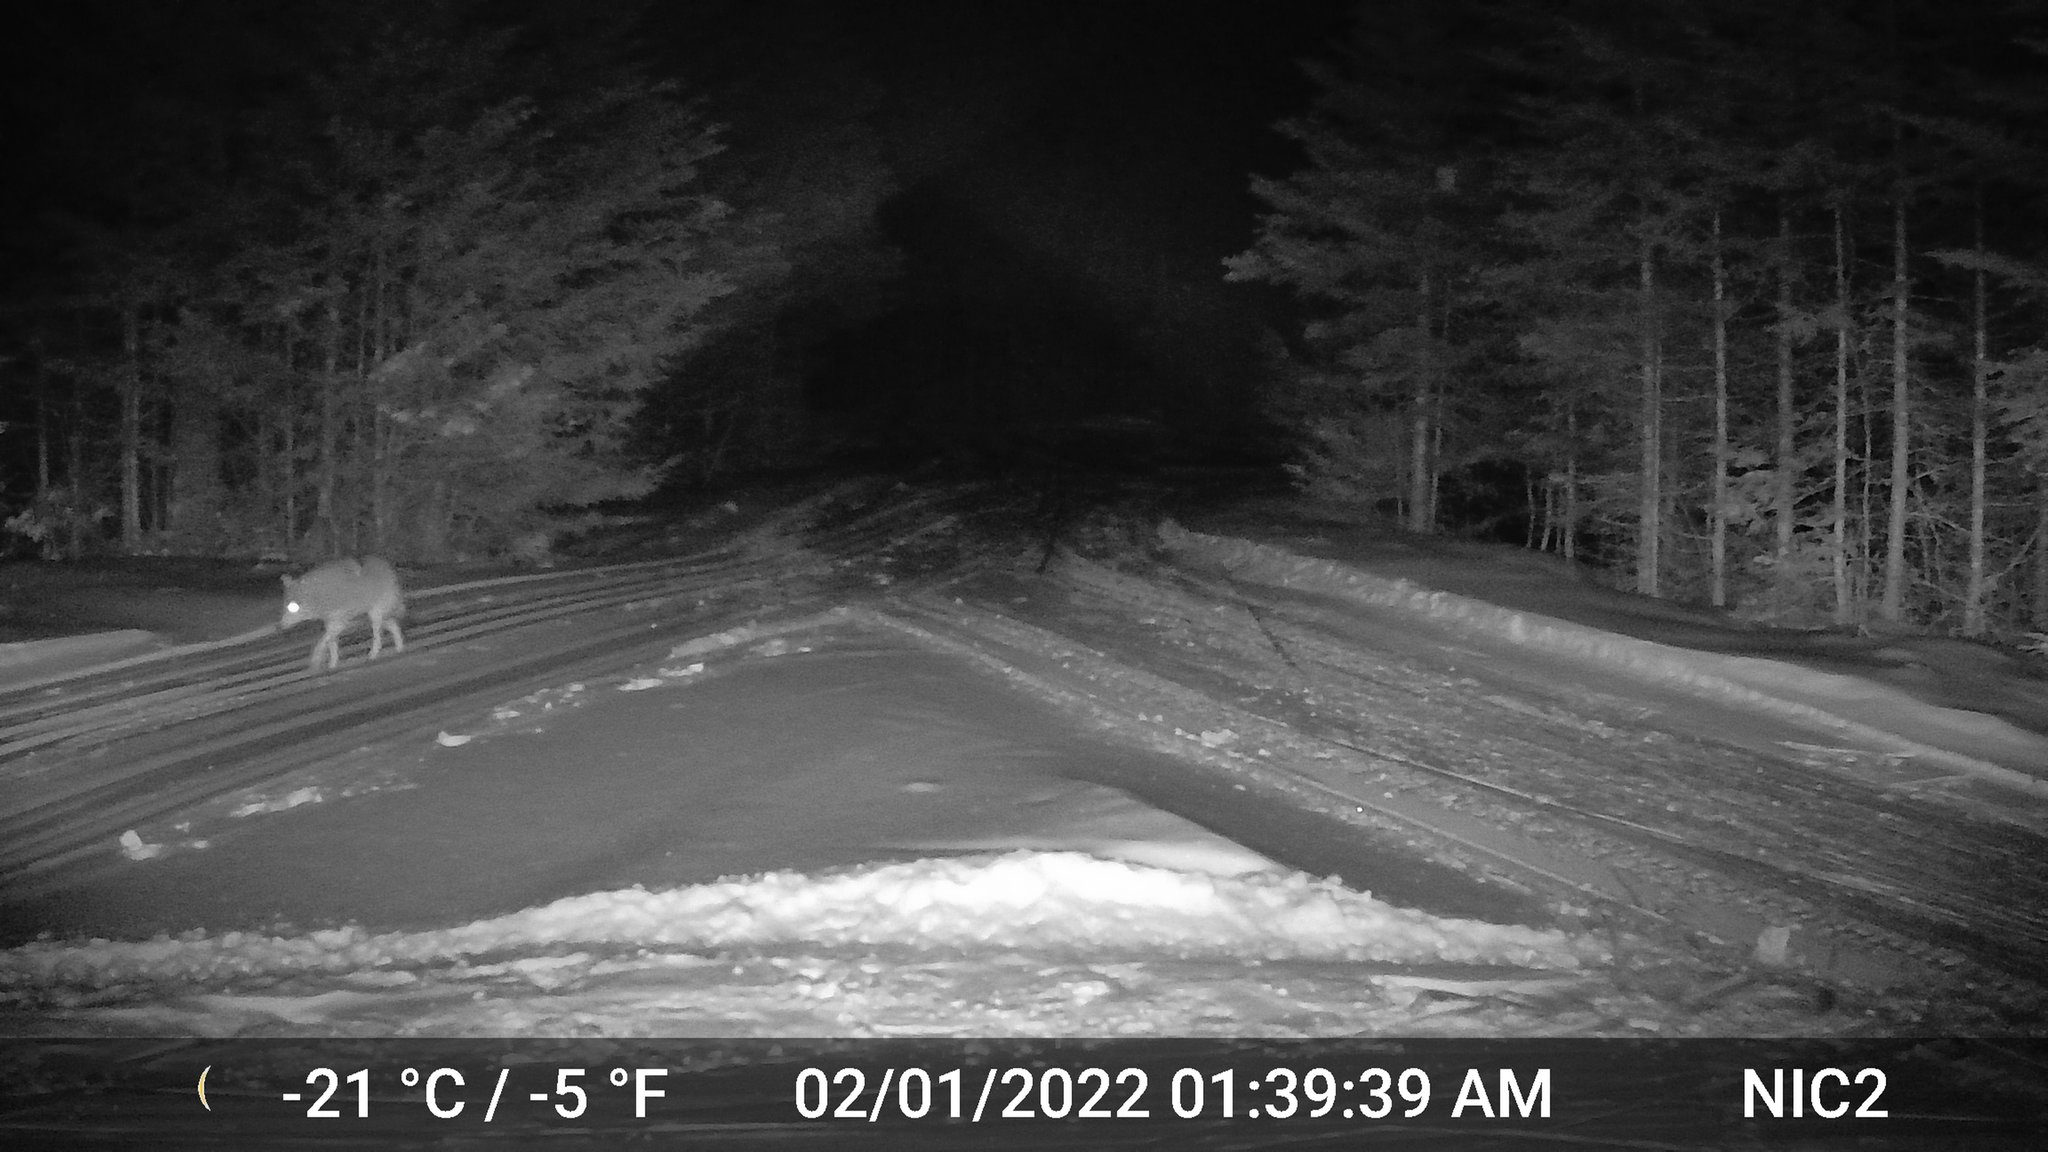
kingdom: Animalia
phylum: Chordata
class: Mammalia
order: Carnivora
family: Canidae
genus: Canis
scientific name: Canis latrans
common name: Coyote
